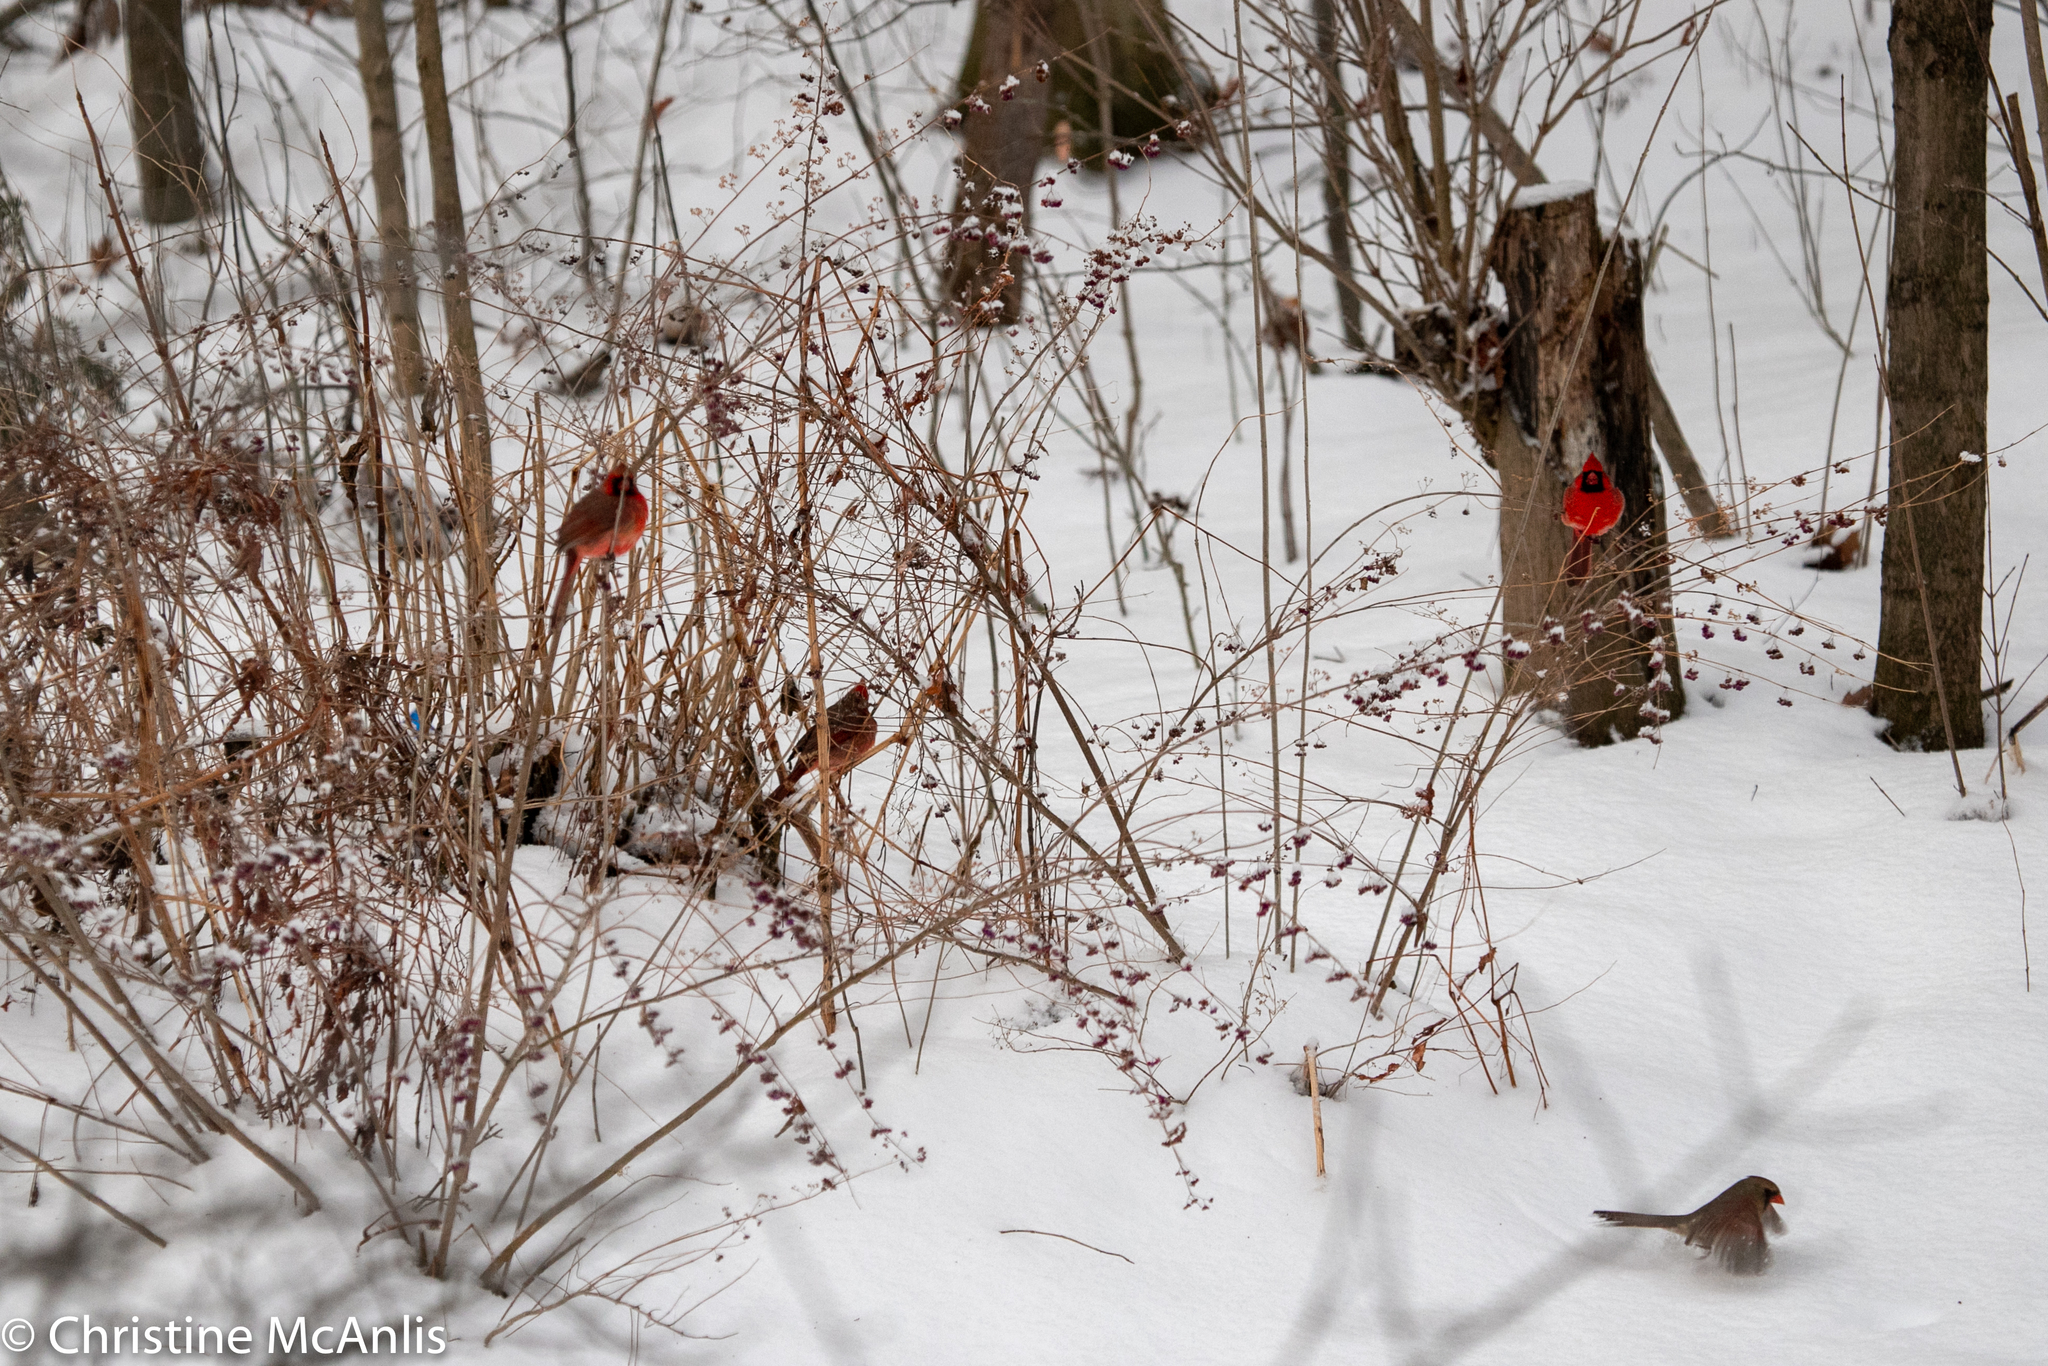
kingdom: Animalia
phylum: Chordata
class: Aves
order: Passeriformes
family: Cardinalidae
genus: Cardinalis
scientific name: Cardinalis cardinalis
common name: Northern cardinal
